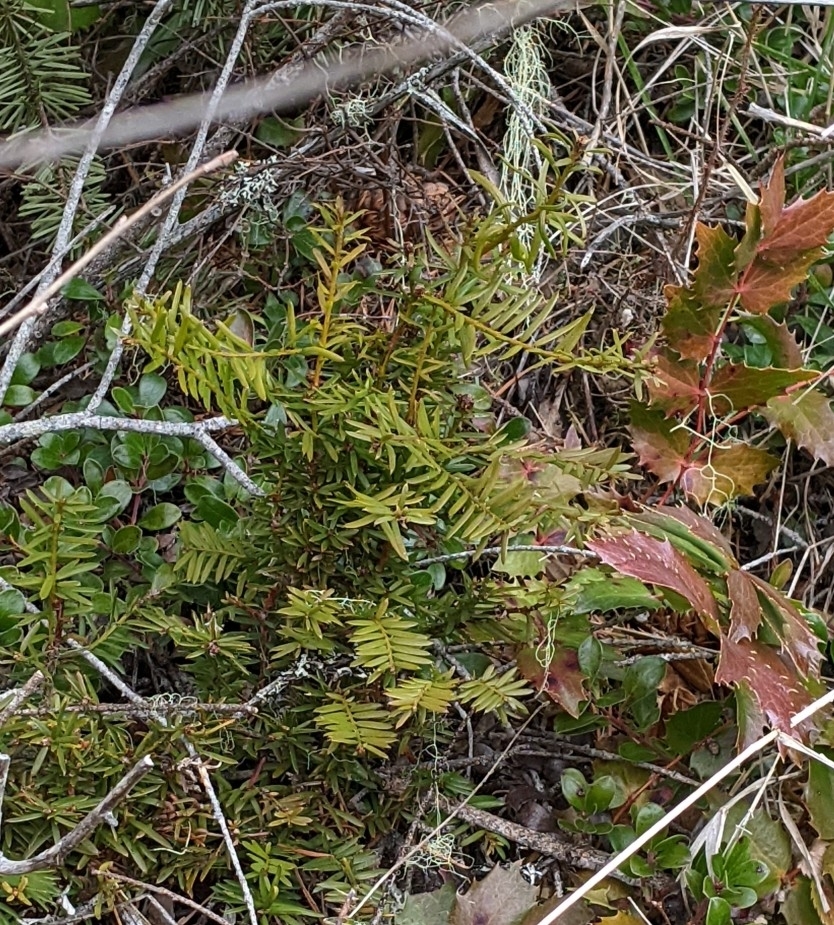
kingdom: Plantae
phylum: Tracheophyta
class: Pinopsida
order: Pinales
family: Taxaceae
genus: Taxus
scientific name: Taxus brevifolia
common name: Pacific yew
